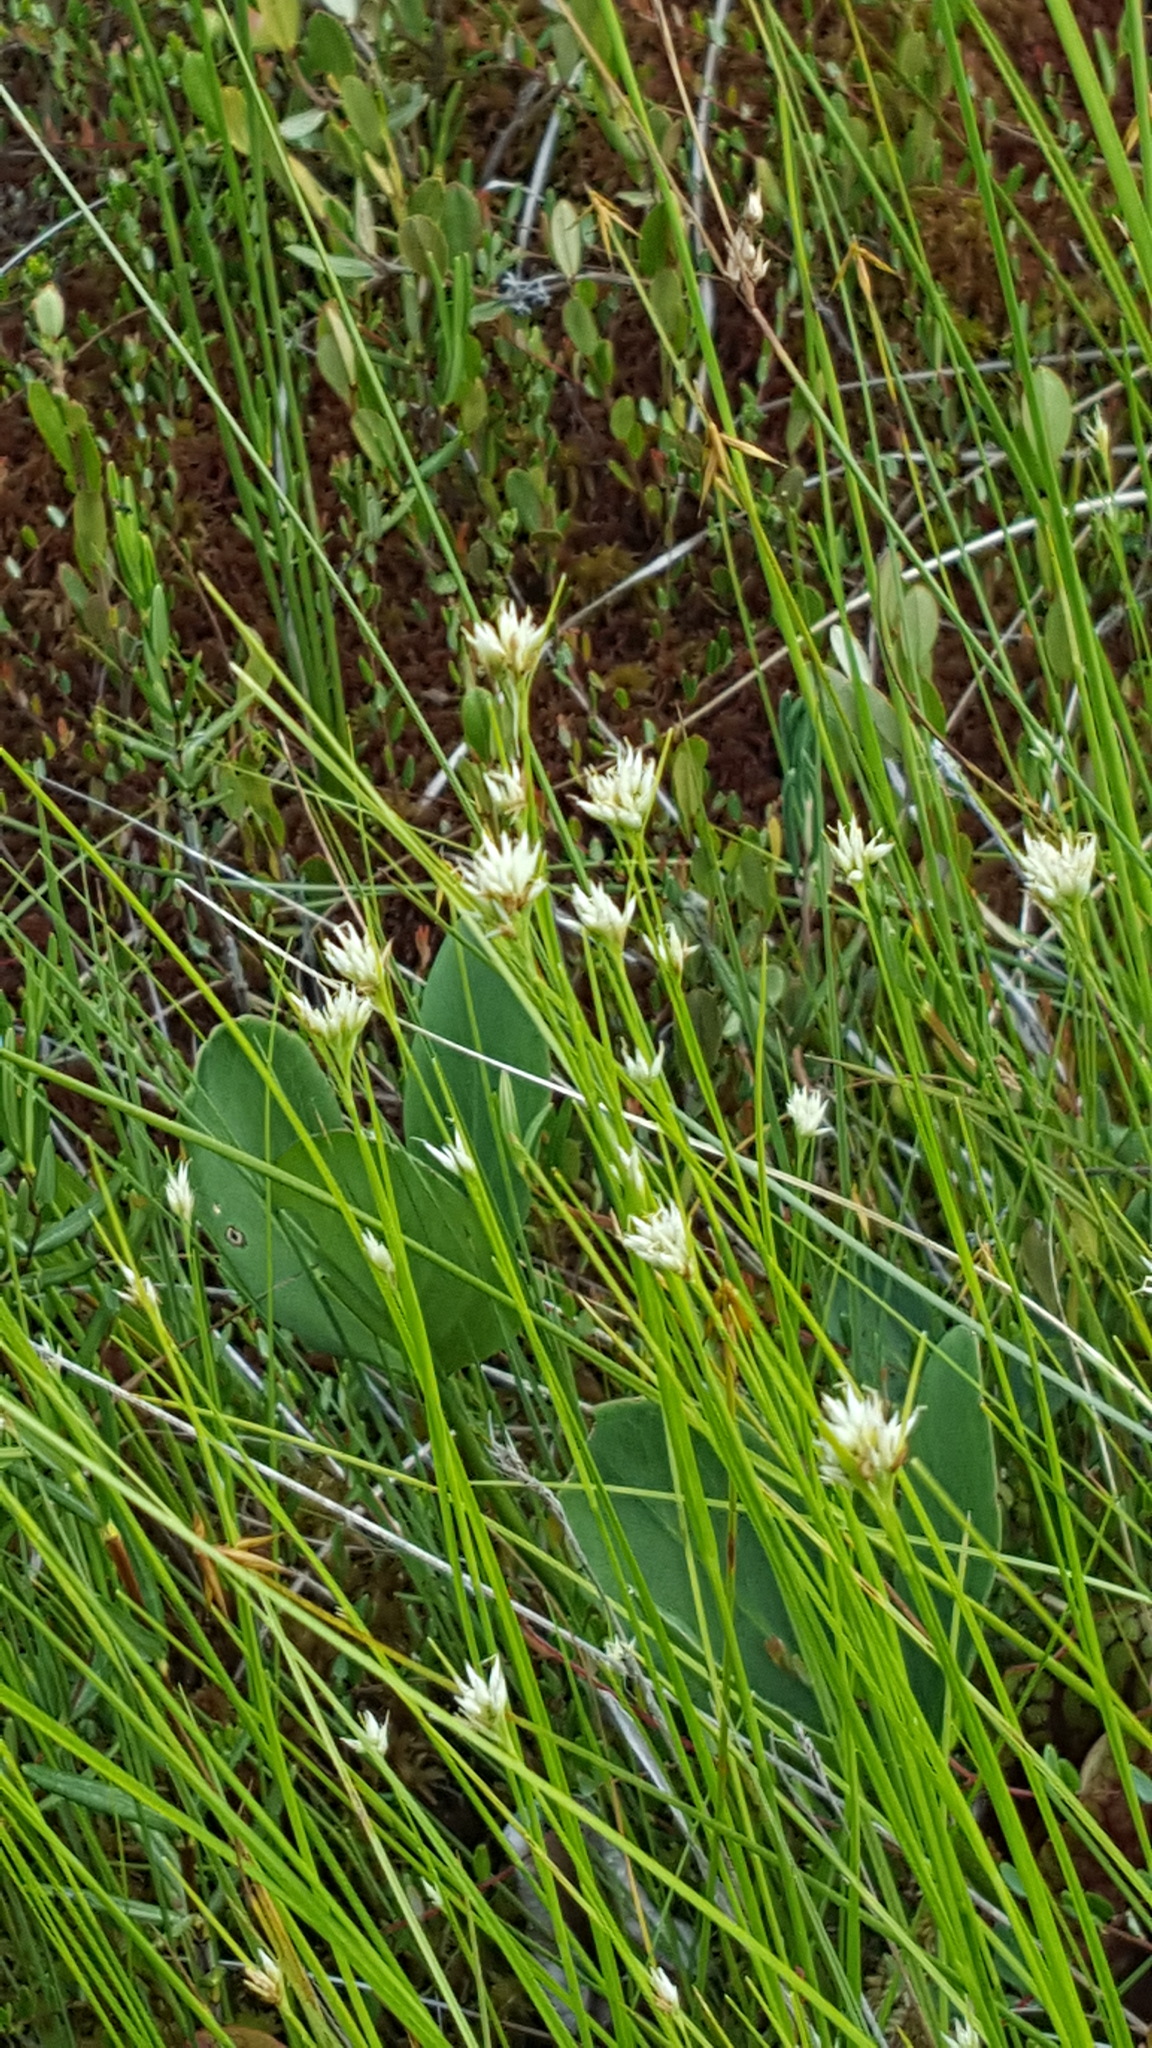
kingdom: Plantae
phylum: Tracheophyta
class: Liliopsida
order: Poales
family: Cyperaceae
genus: Rhynchospora
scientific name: Rhynchospora alba
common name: White beak-sedge
